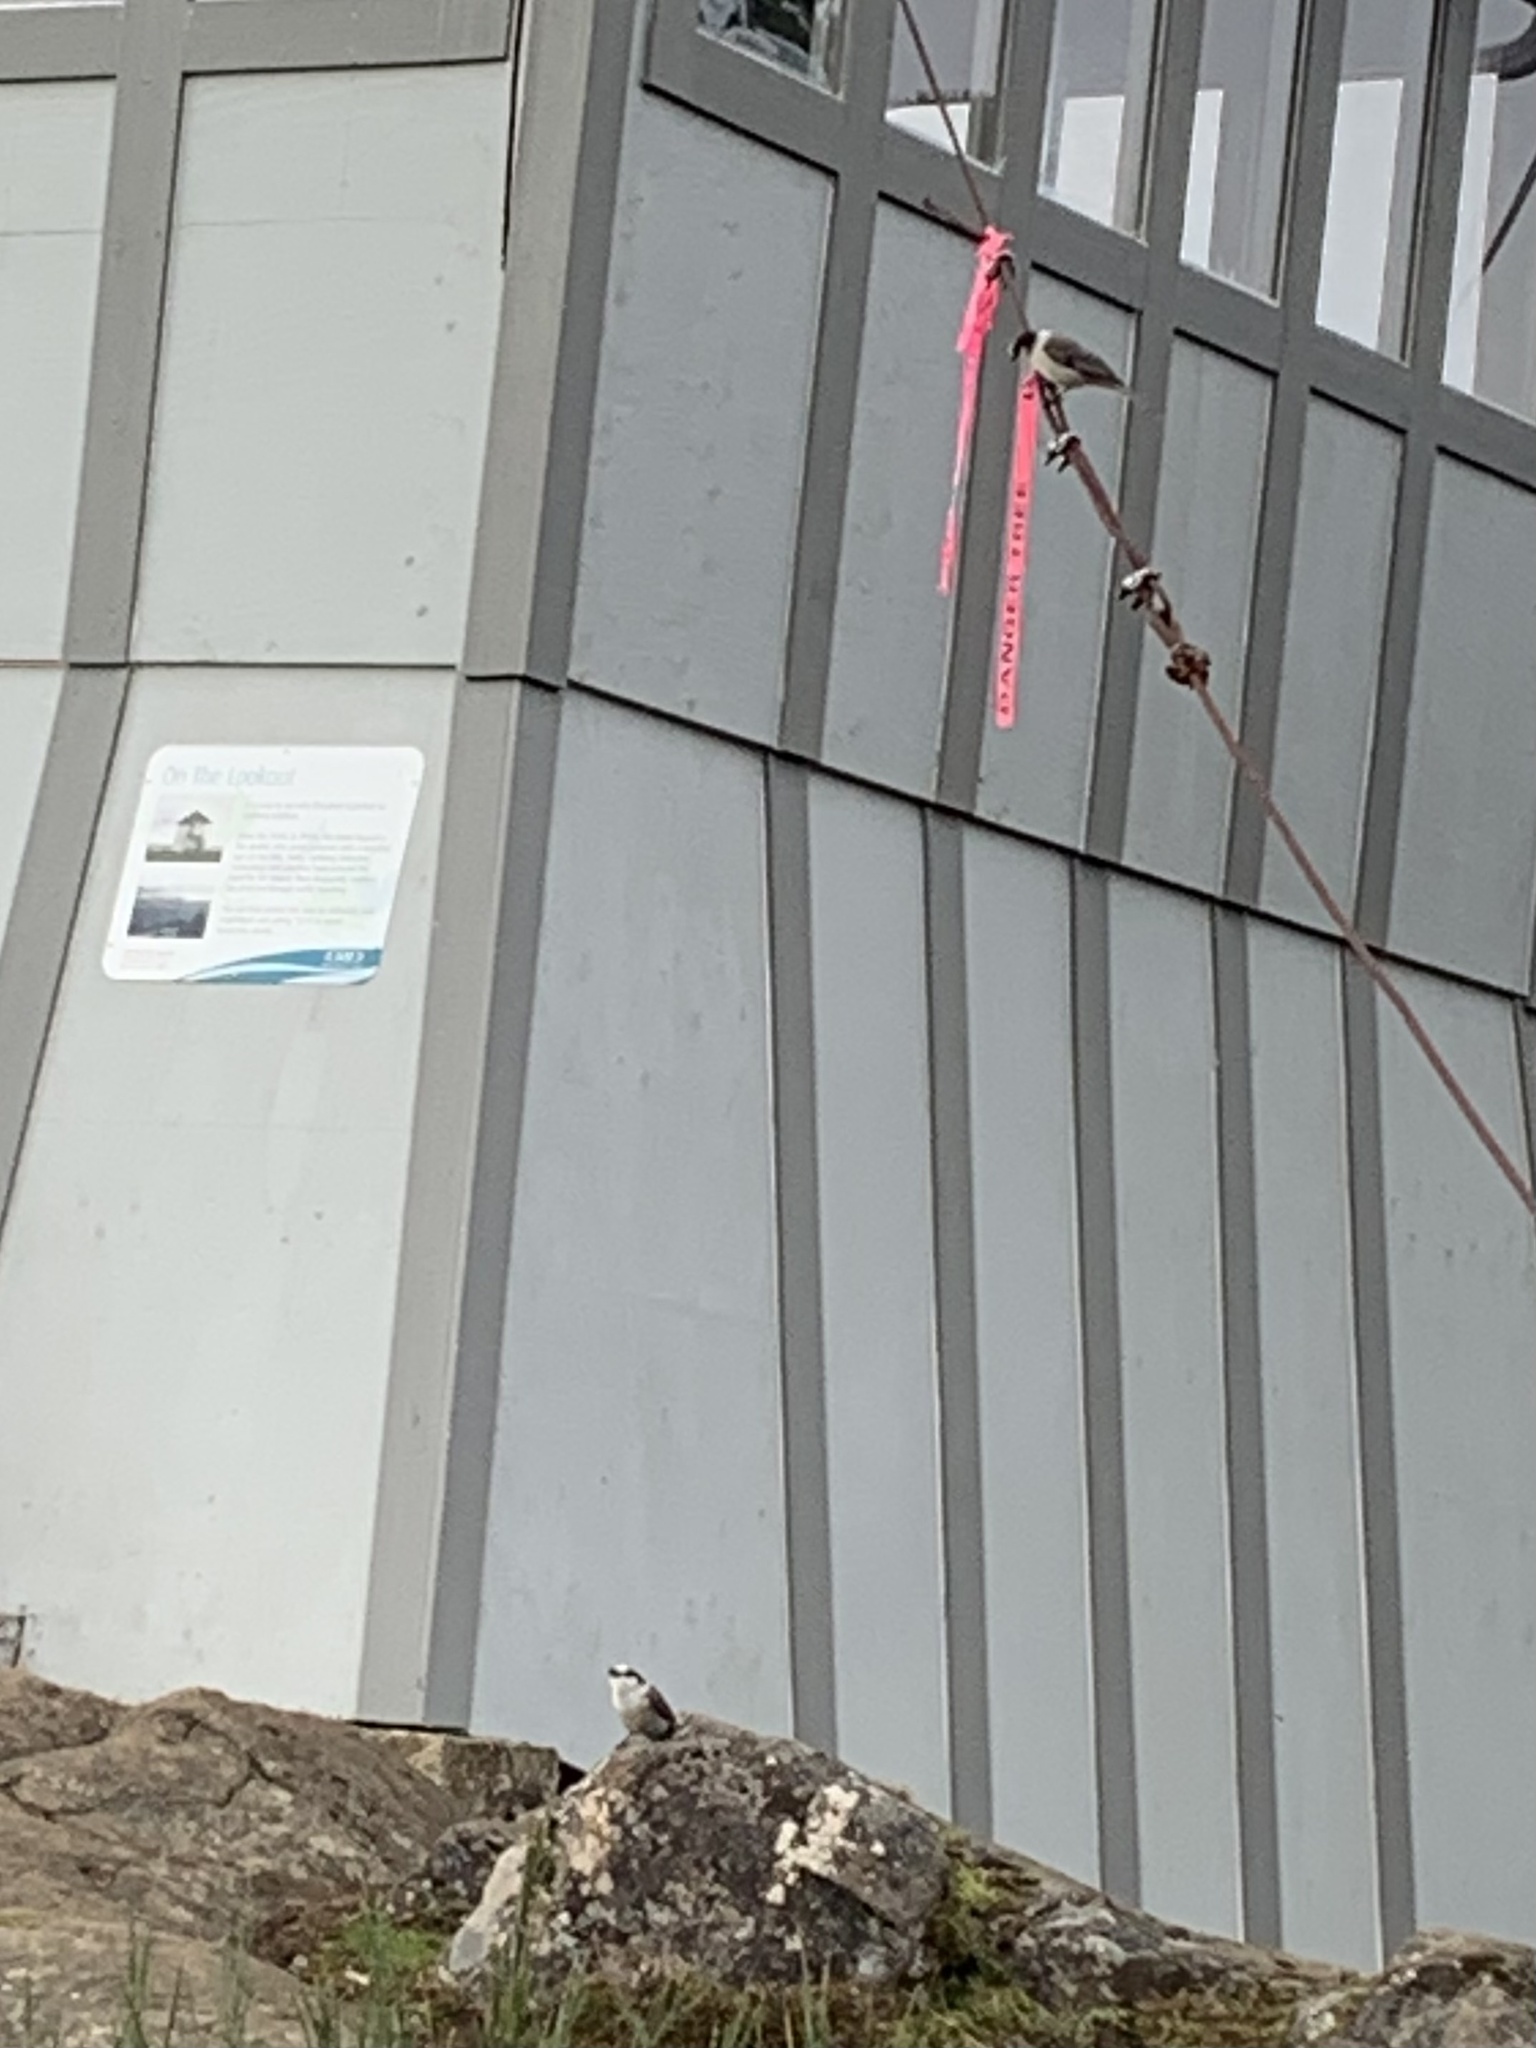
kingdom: Animalia
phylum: Chordata
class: Aves
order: Passeriformes
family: Corvidae
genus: Perisoreus
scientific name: Perisoreus canadensis
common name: Gray jay
